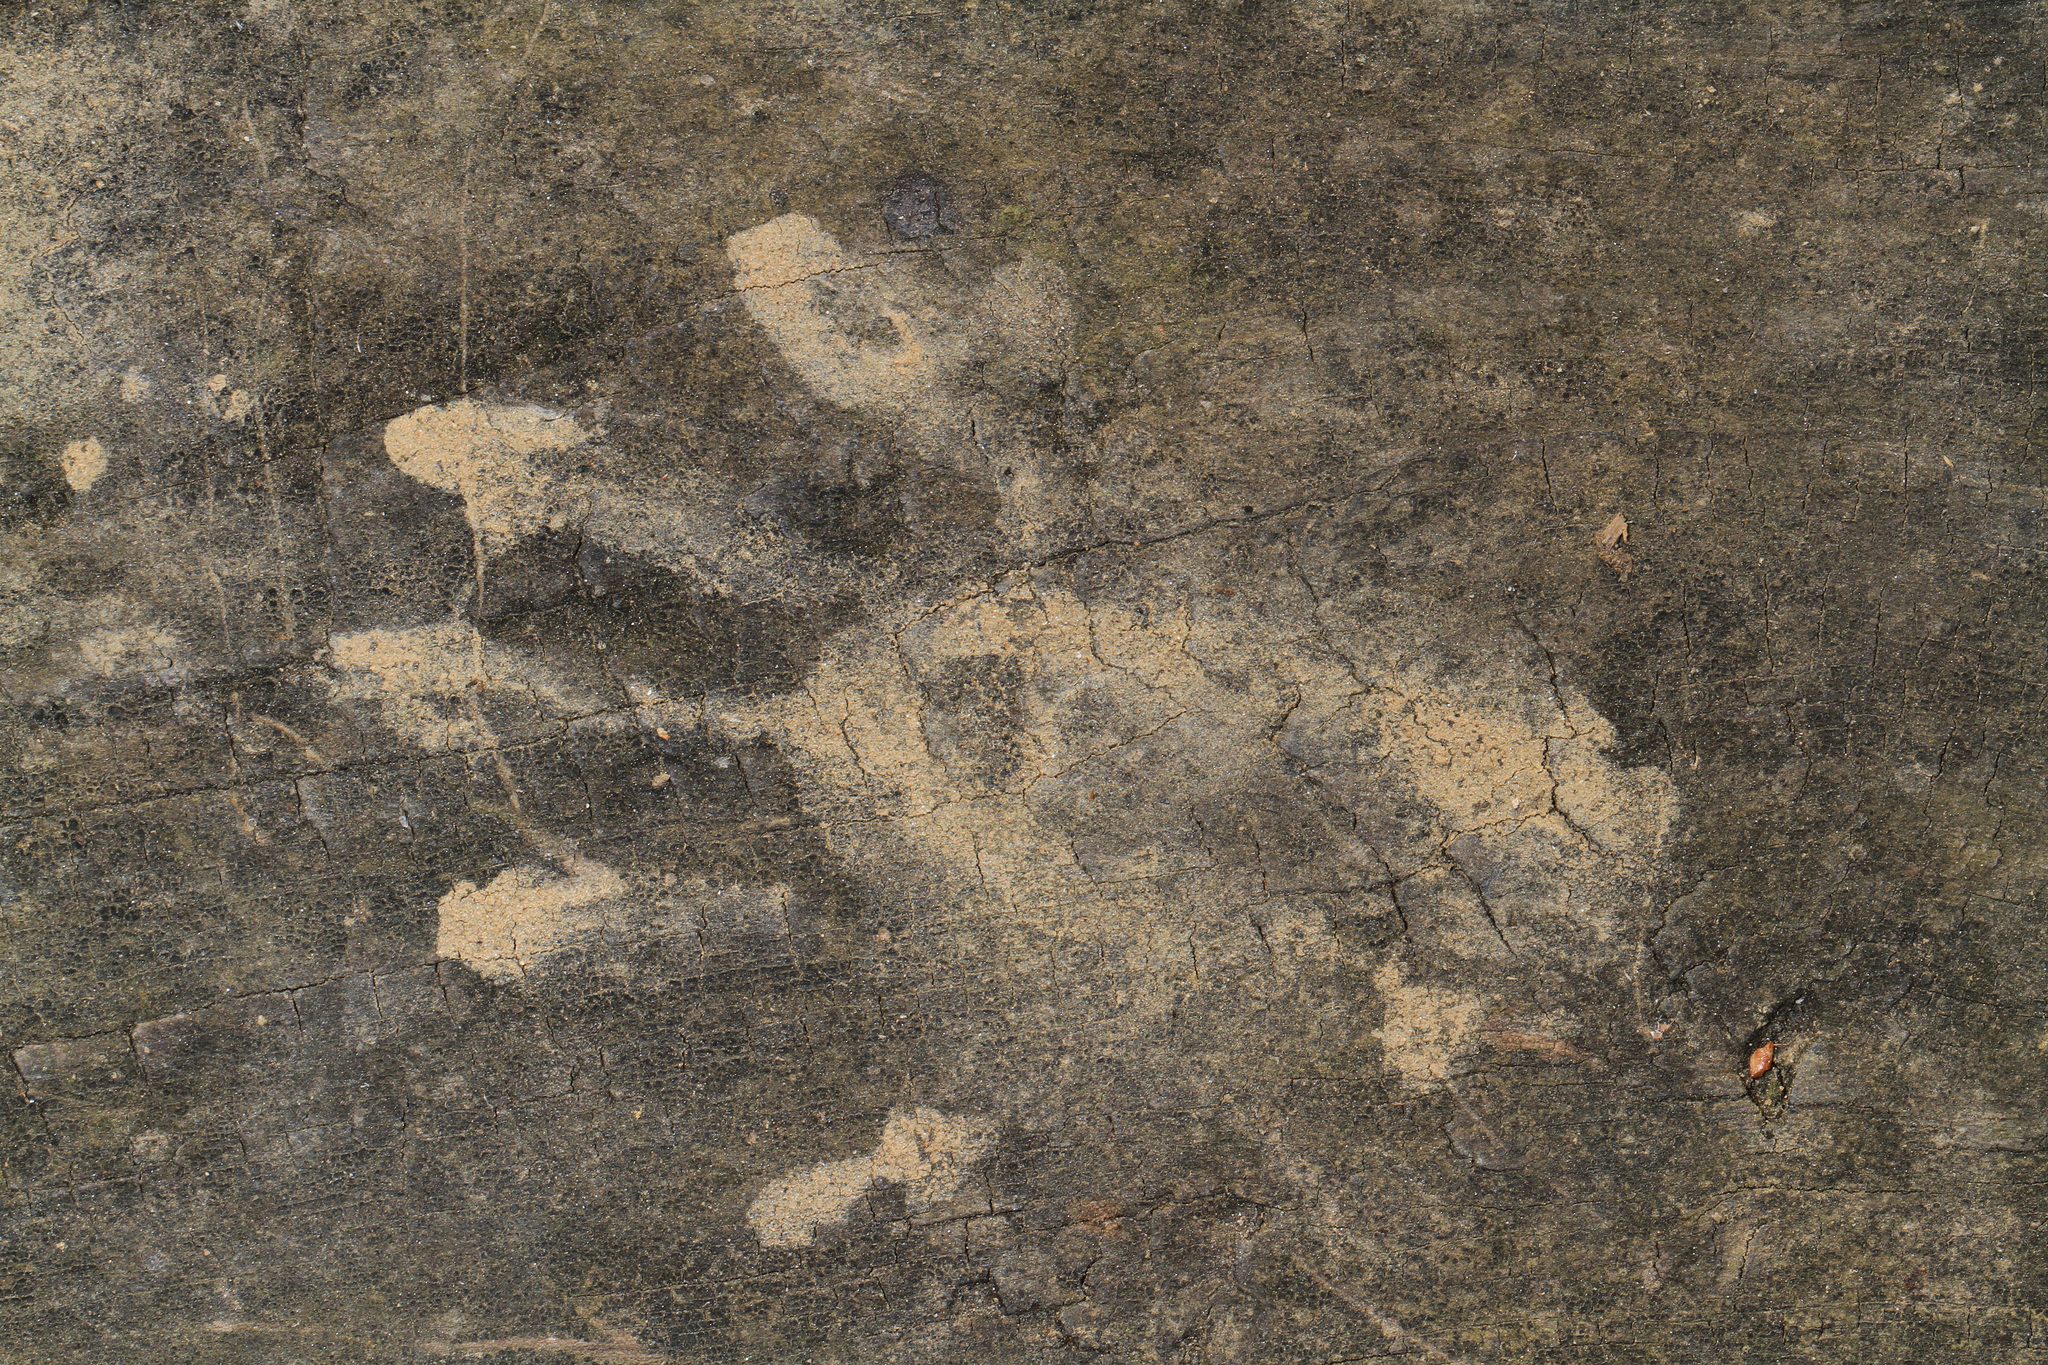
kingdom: Animalia
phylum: Chordata
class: Mammalia
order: Carnivora
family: Procyonidae
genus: Procyon
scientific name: Procyon lotor
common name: Raccoon
